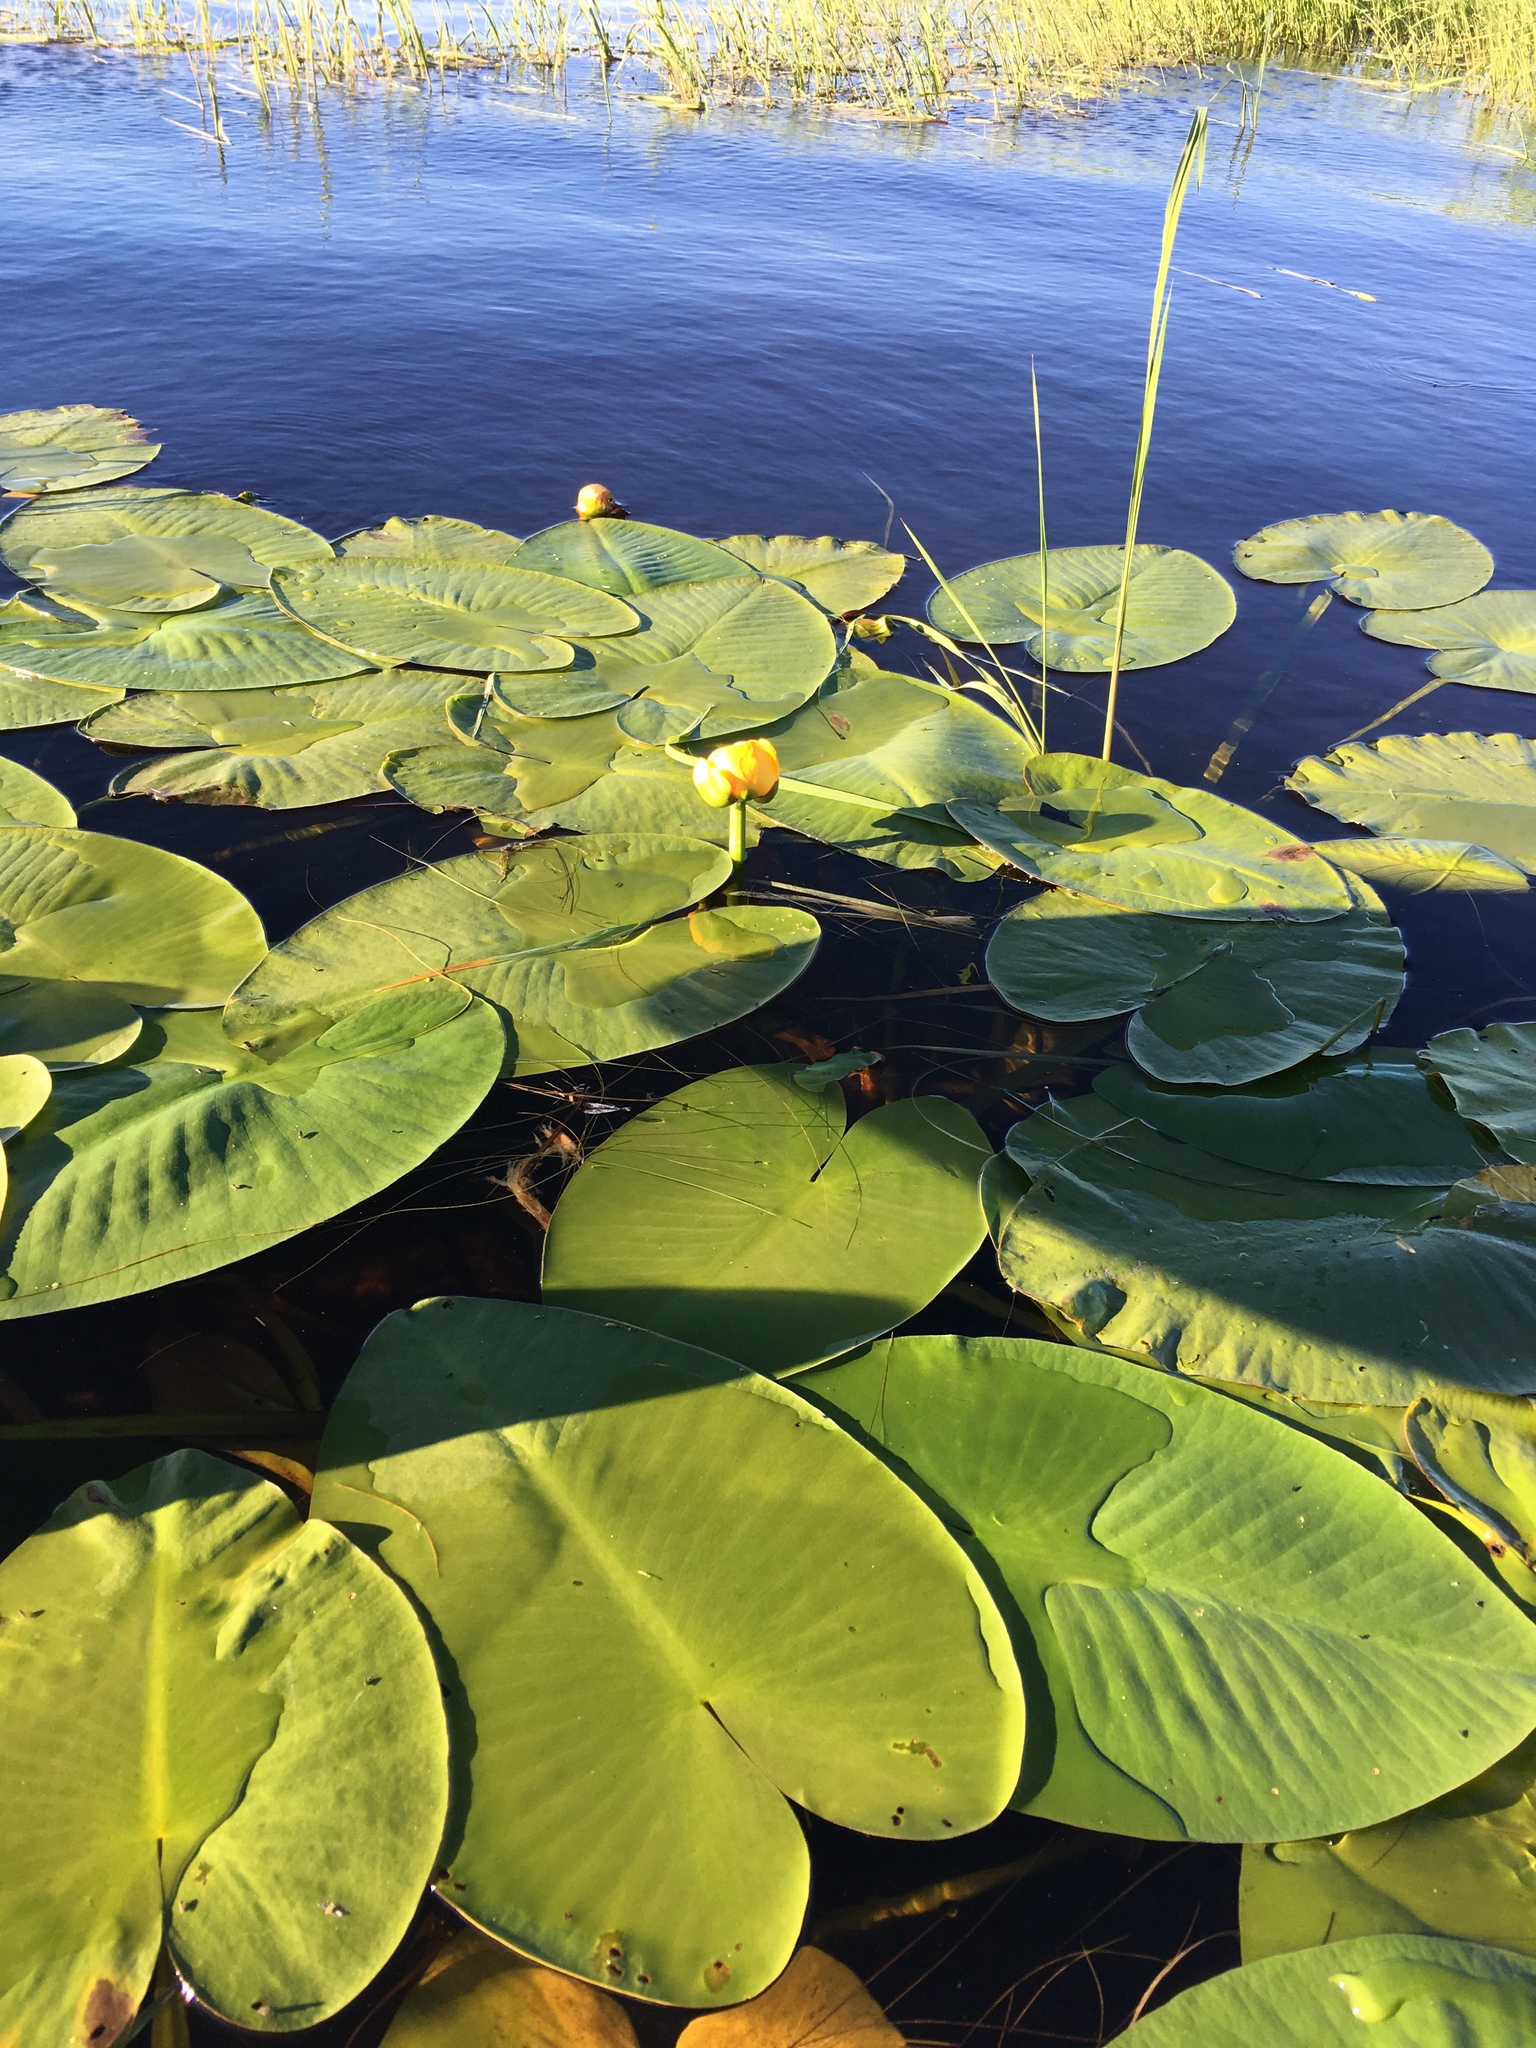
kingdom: Plantae
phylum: Tracheophyta
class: Magnoliopsida
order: Nymphaeales
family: Nymphaeaceae
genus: Nuphar
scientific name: Nuphar variegata
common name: Beaver-root
